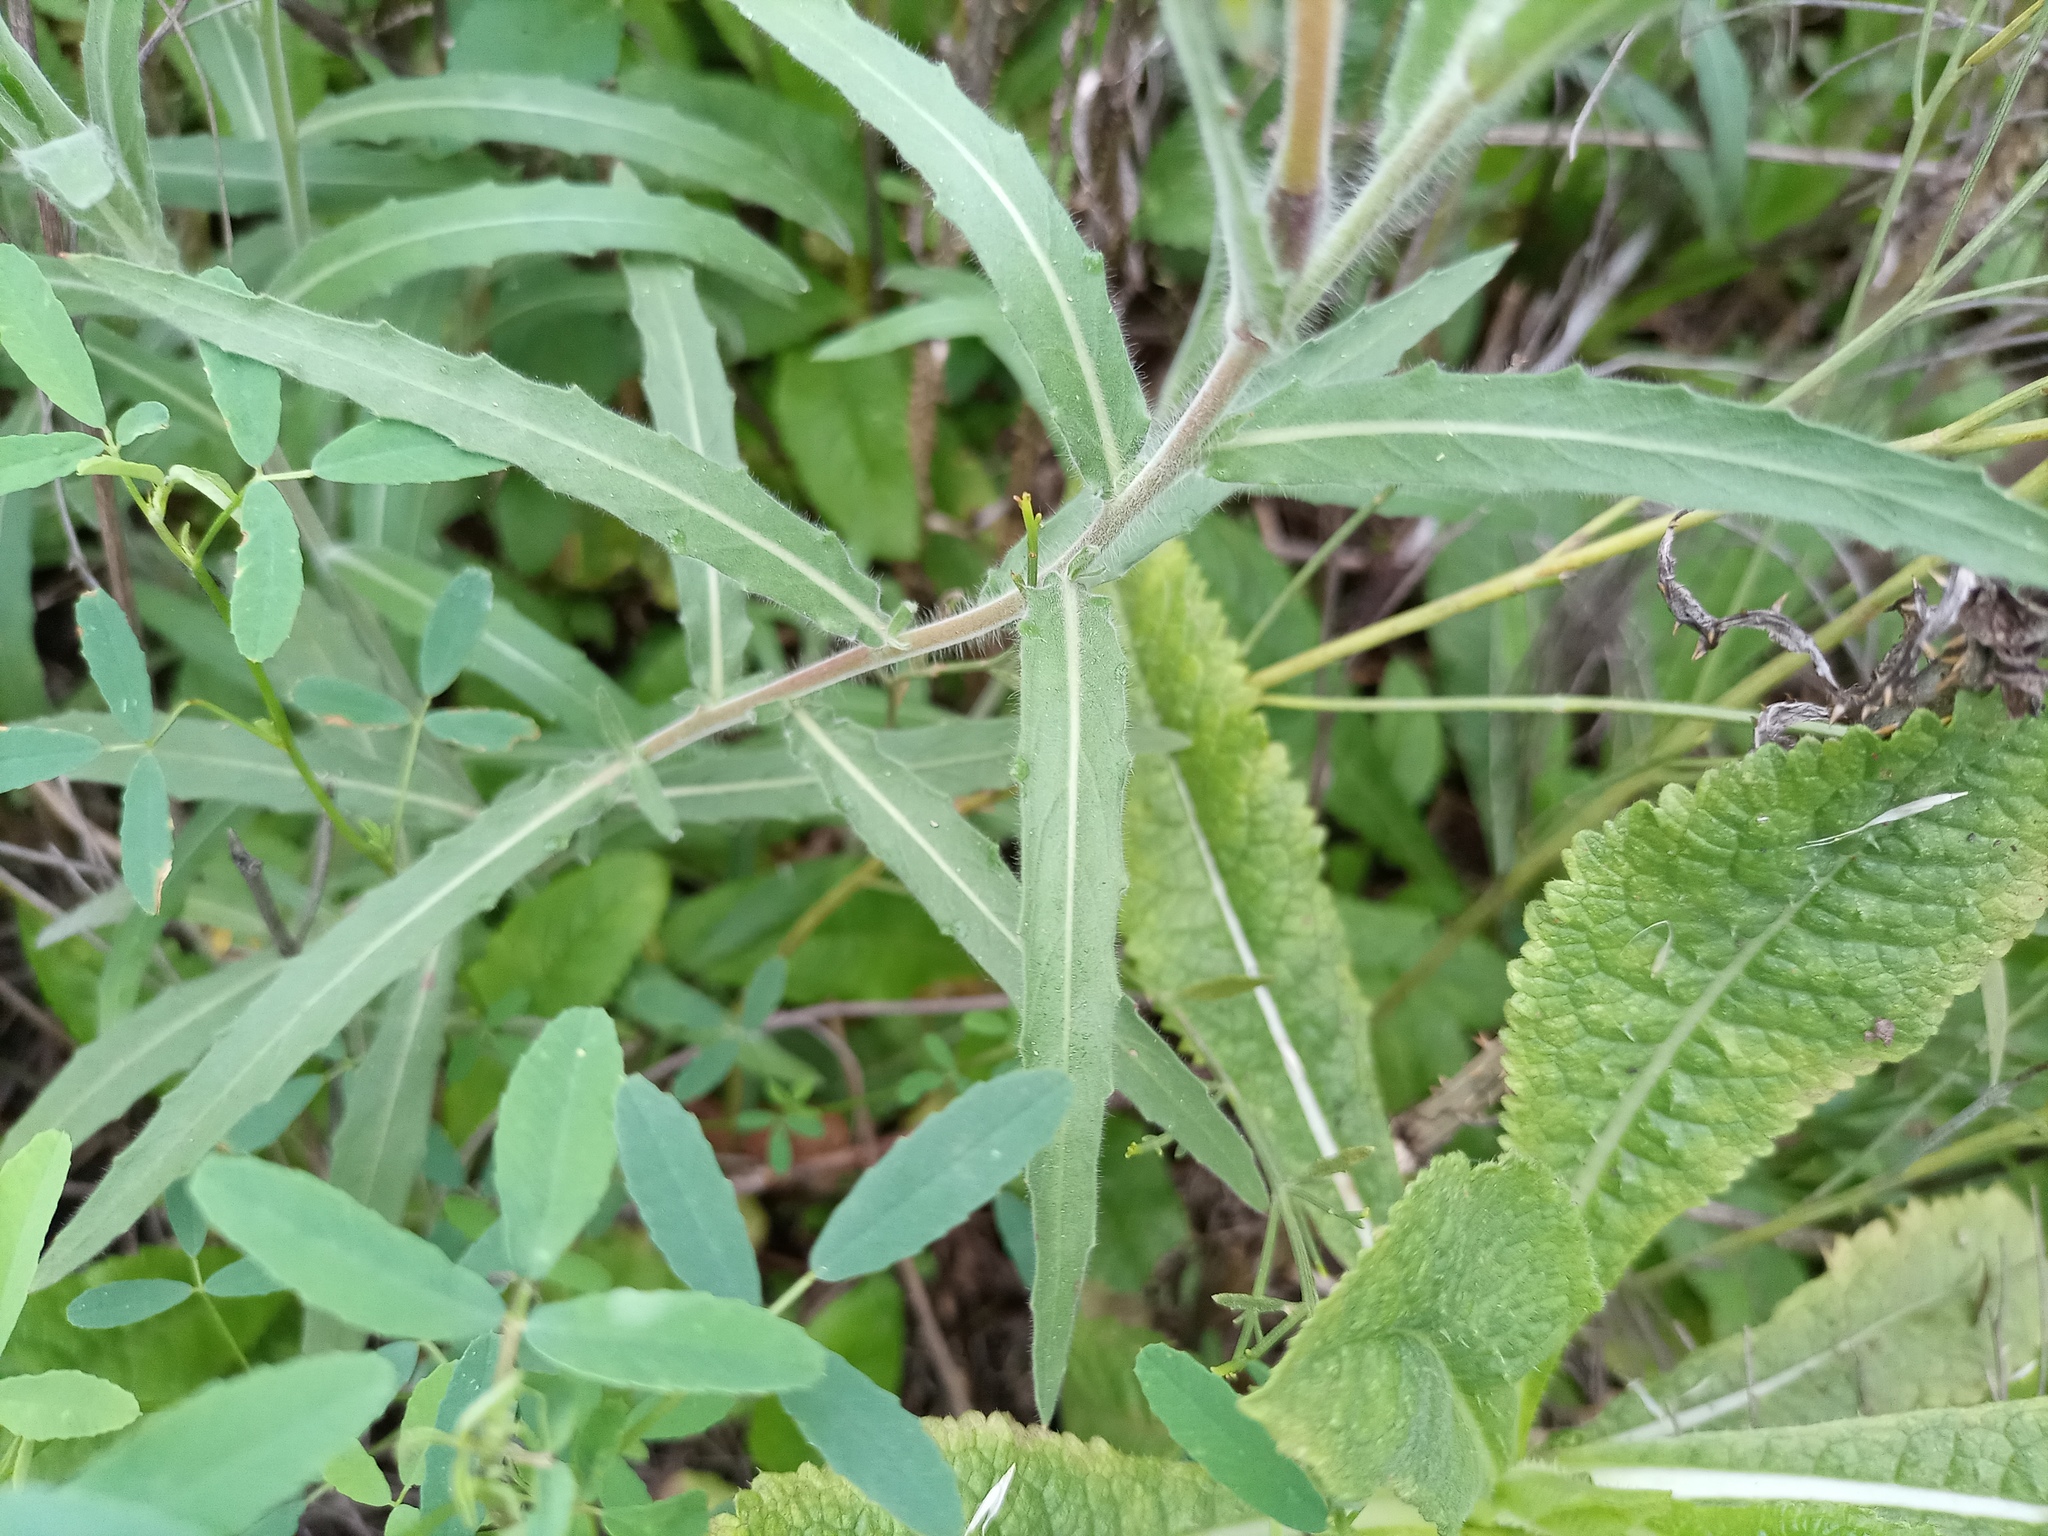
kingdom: Plantae
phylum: Tracheophyta
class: Magnoliopsida
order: Myrtales
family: Onagraceae
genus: Oenothera
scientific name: Oenothera affinis
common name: Longflower evening primrose
